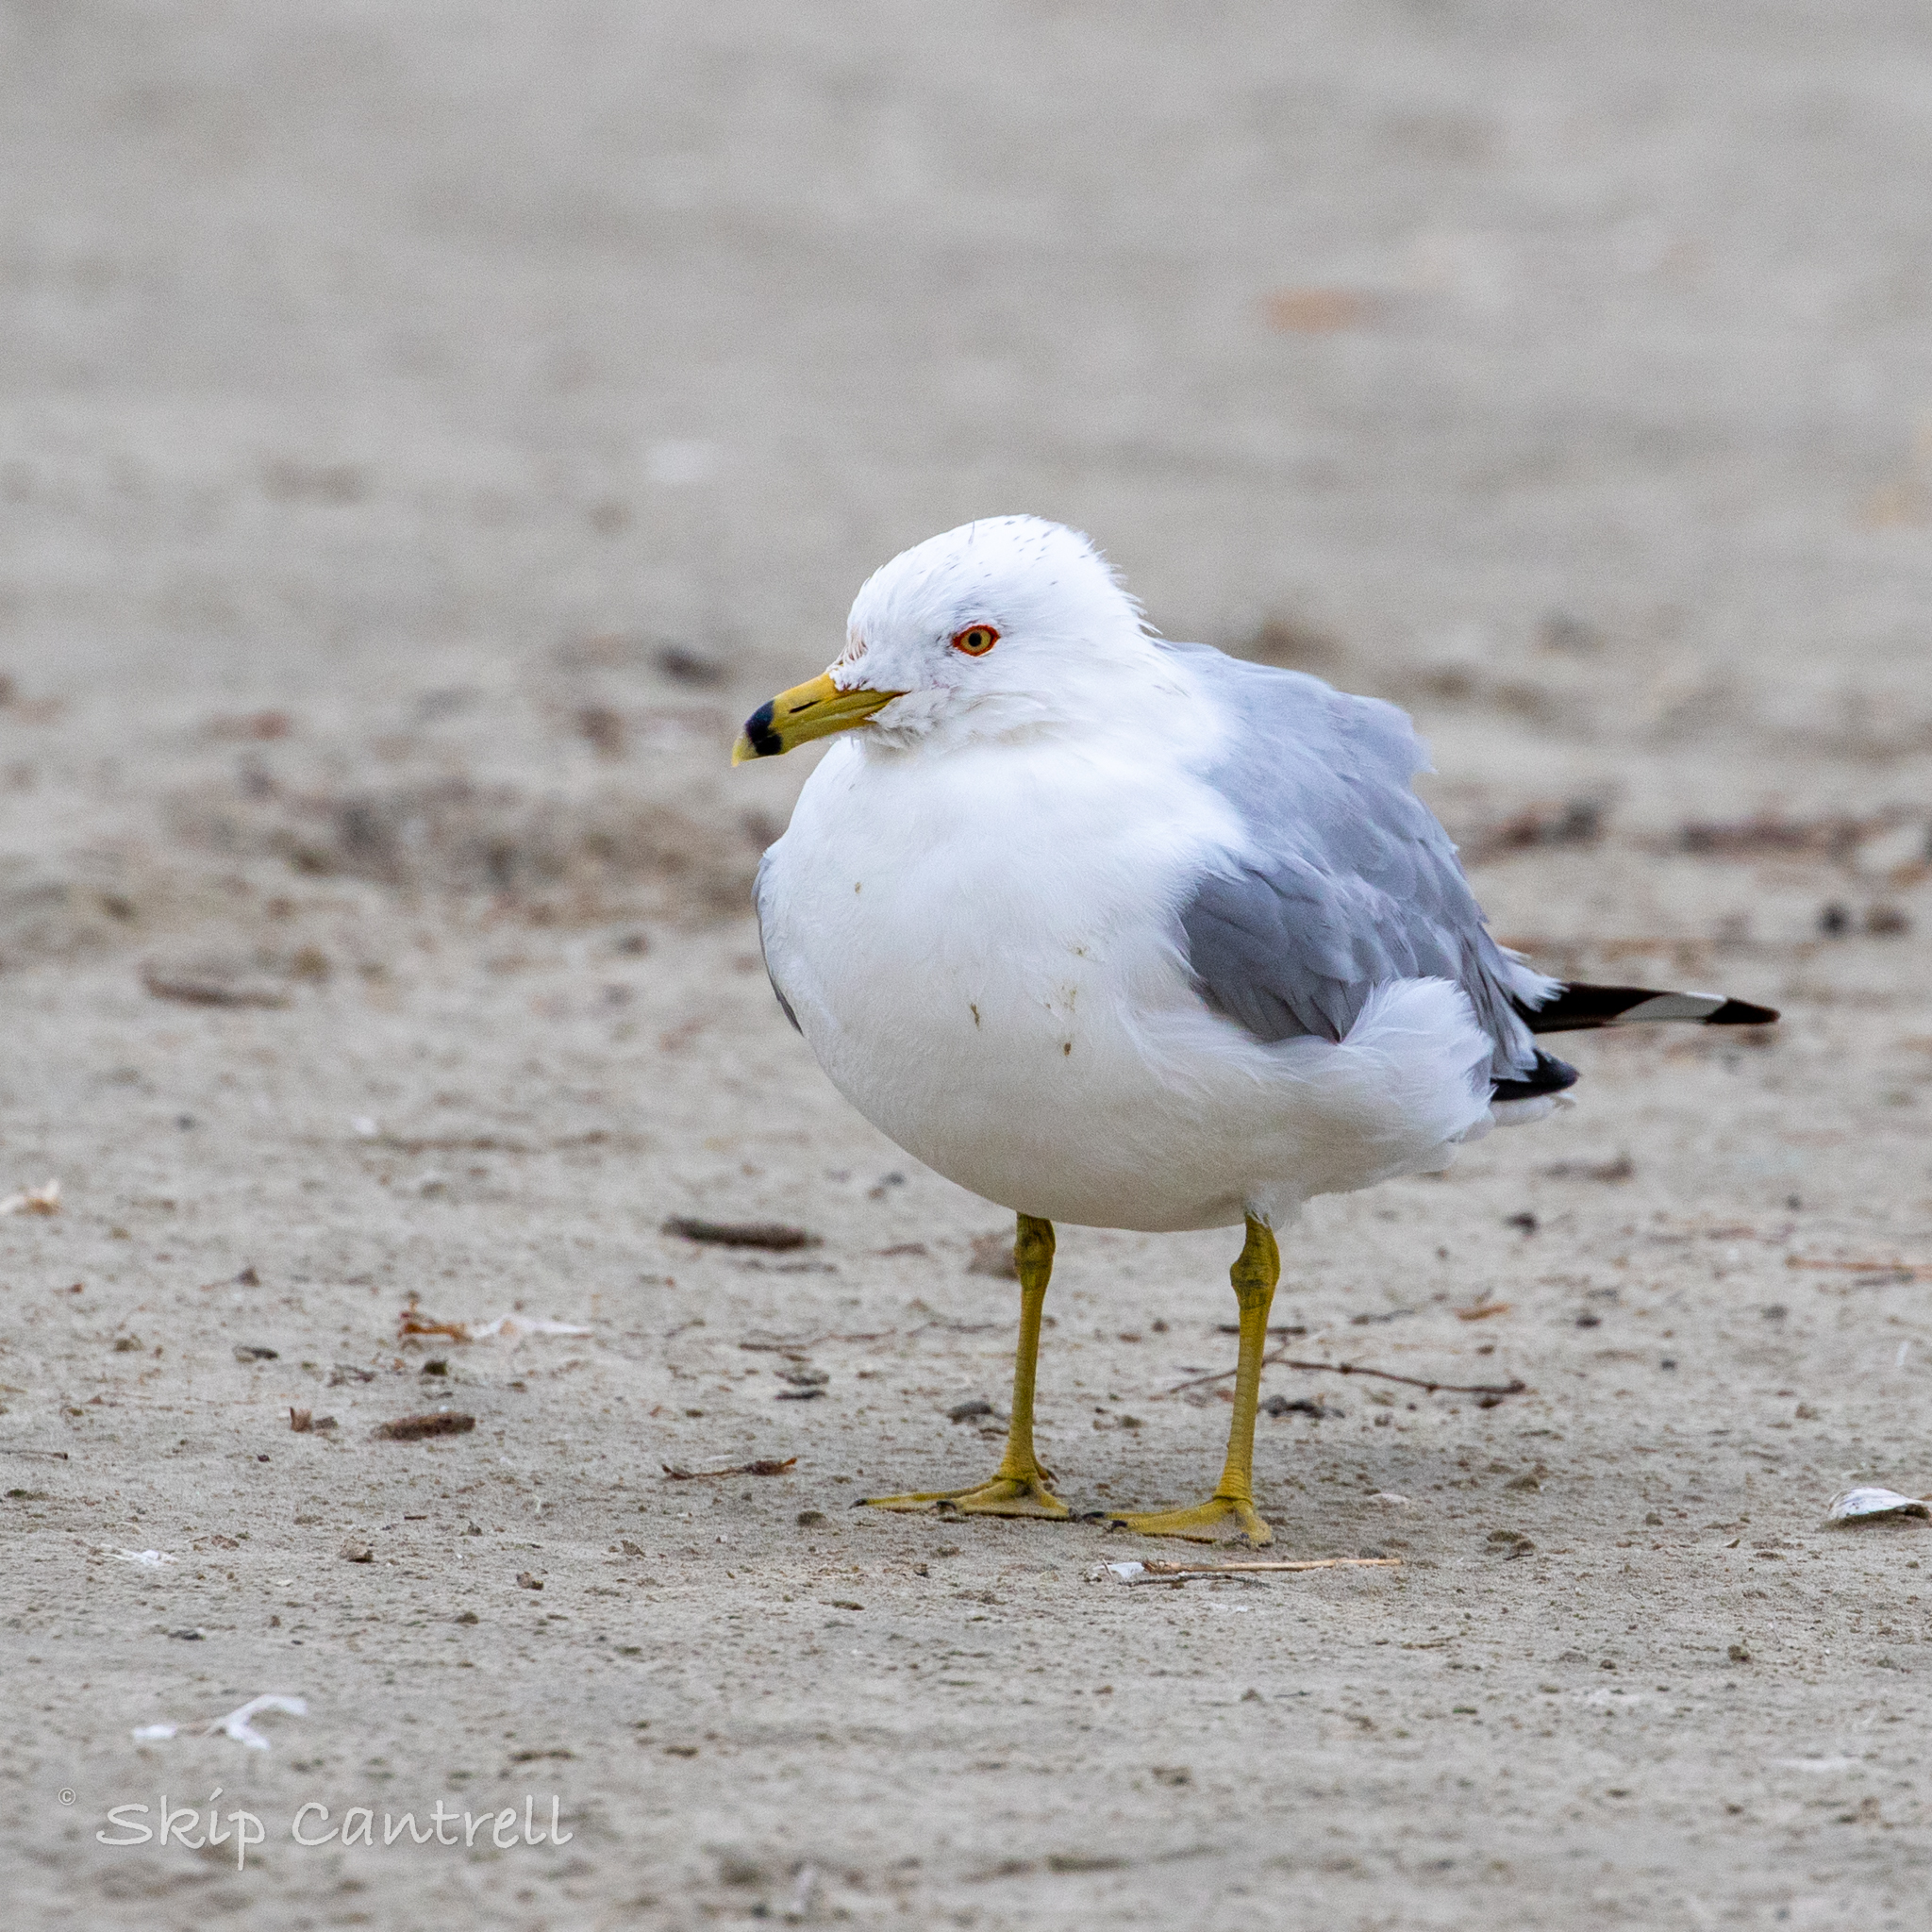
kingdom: Animalia
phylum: Chordata
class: Aves
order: Charadriiformes
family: Laridae
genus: Larus
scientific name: Larus delawarensis
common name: Ring-billed gull
